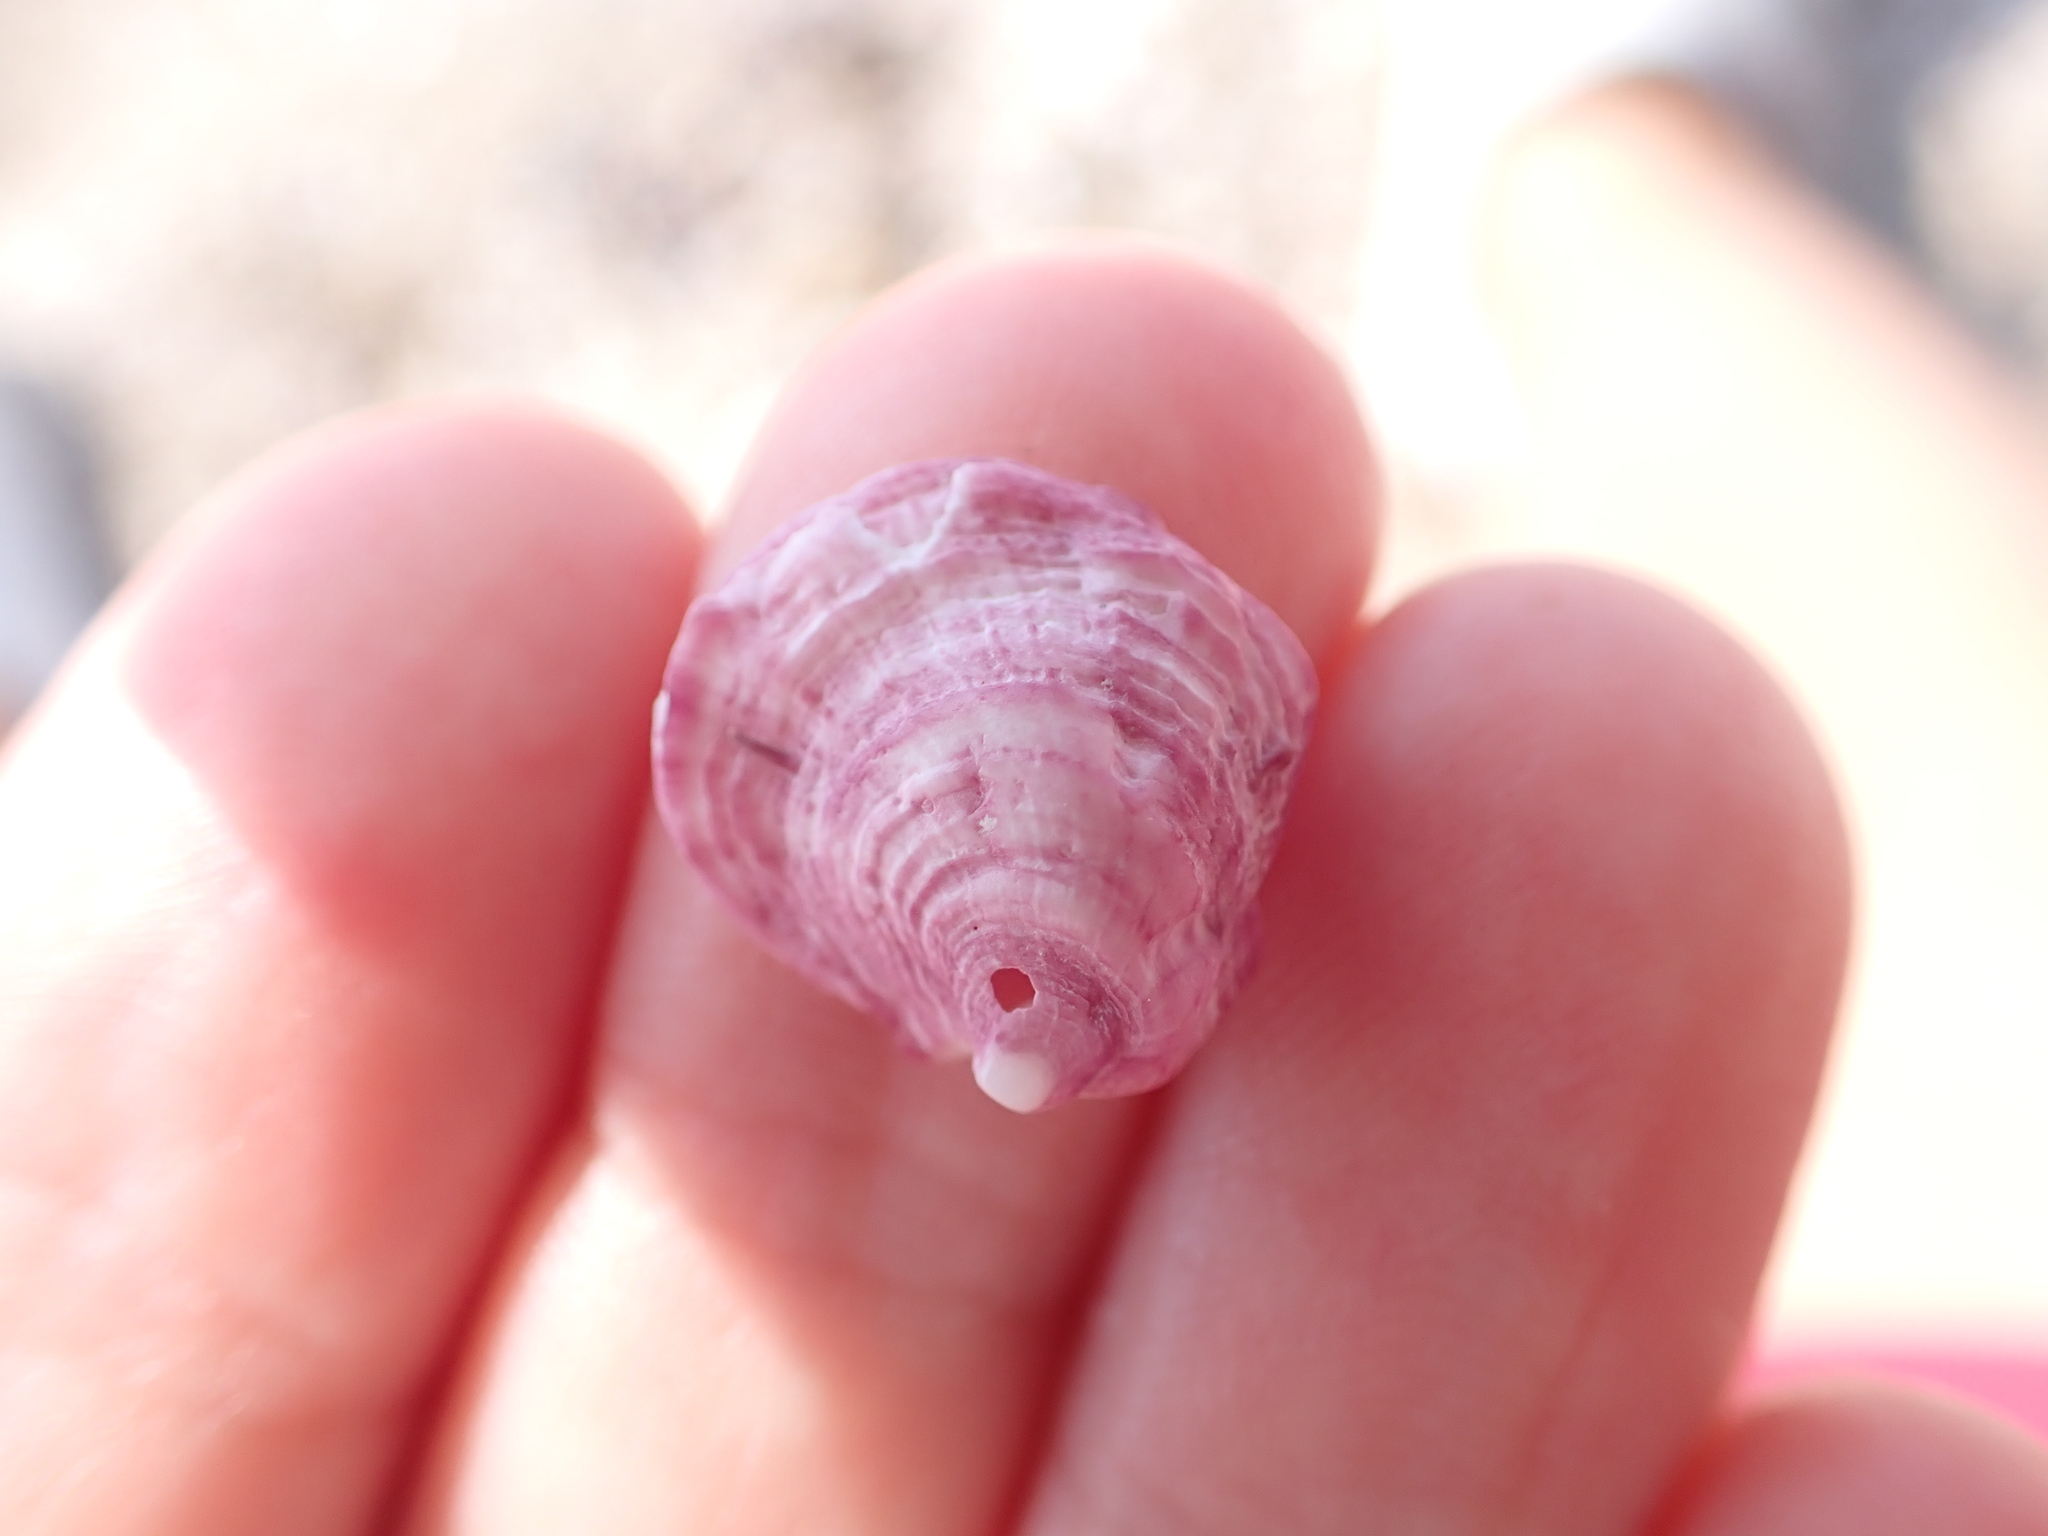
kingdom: Animalia
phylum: Mollusca
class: Bivalvia
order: Pectinida
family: Spondylidae
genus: Spondylus
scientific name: Spondylus gaederopus
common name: European thorny oyster
